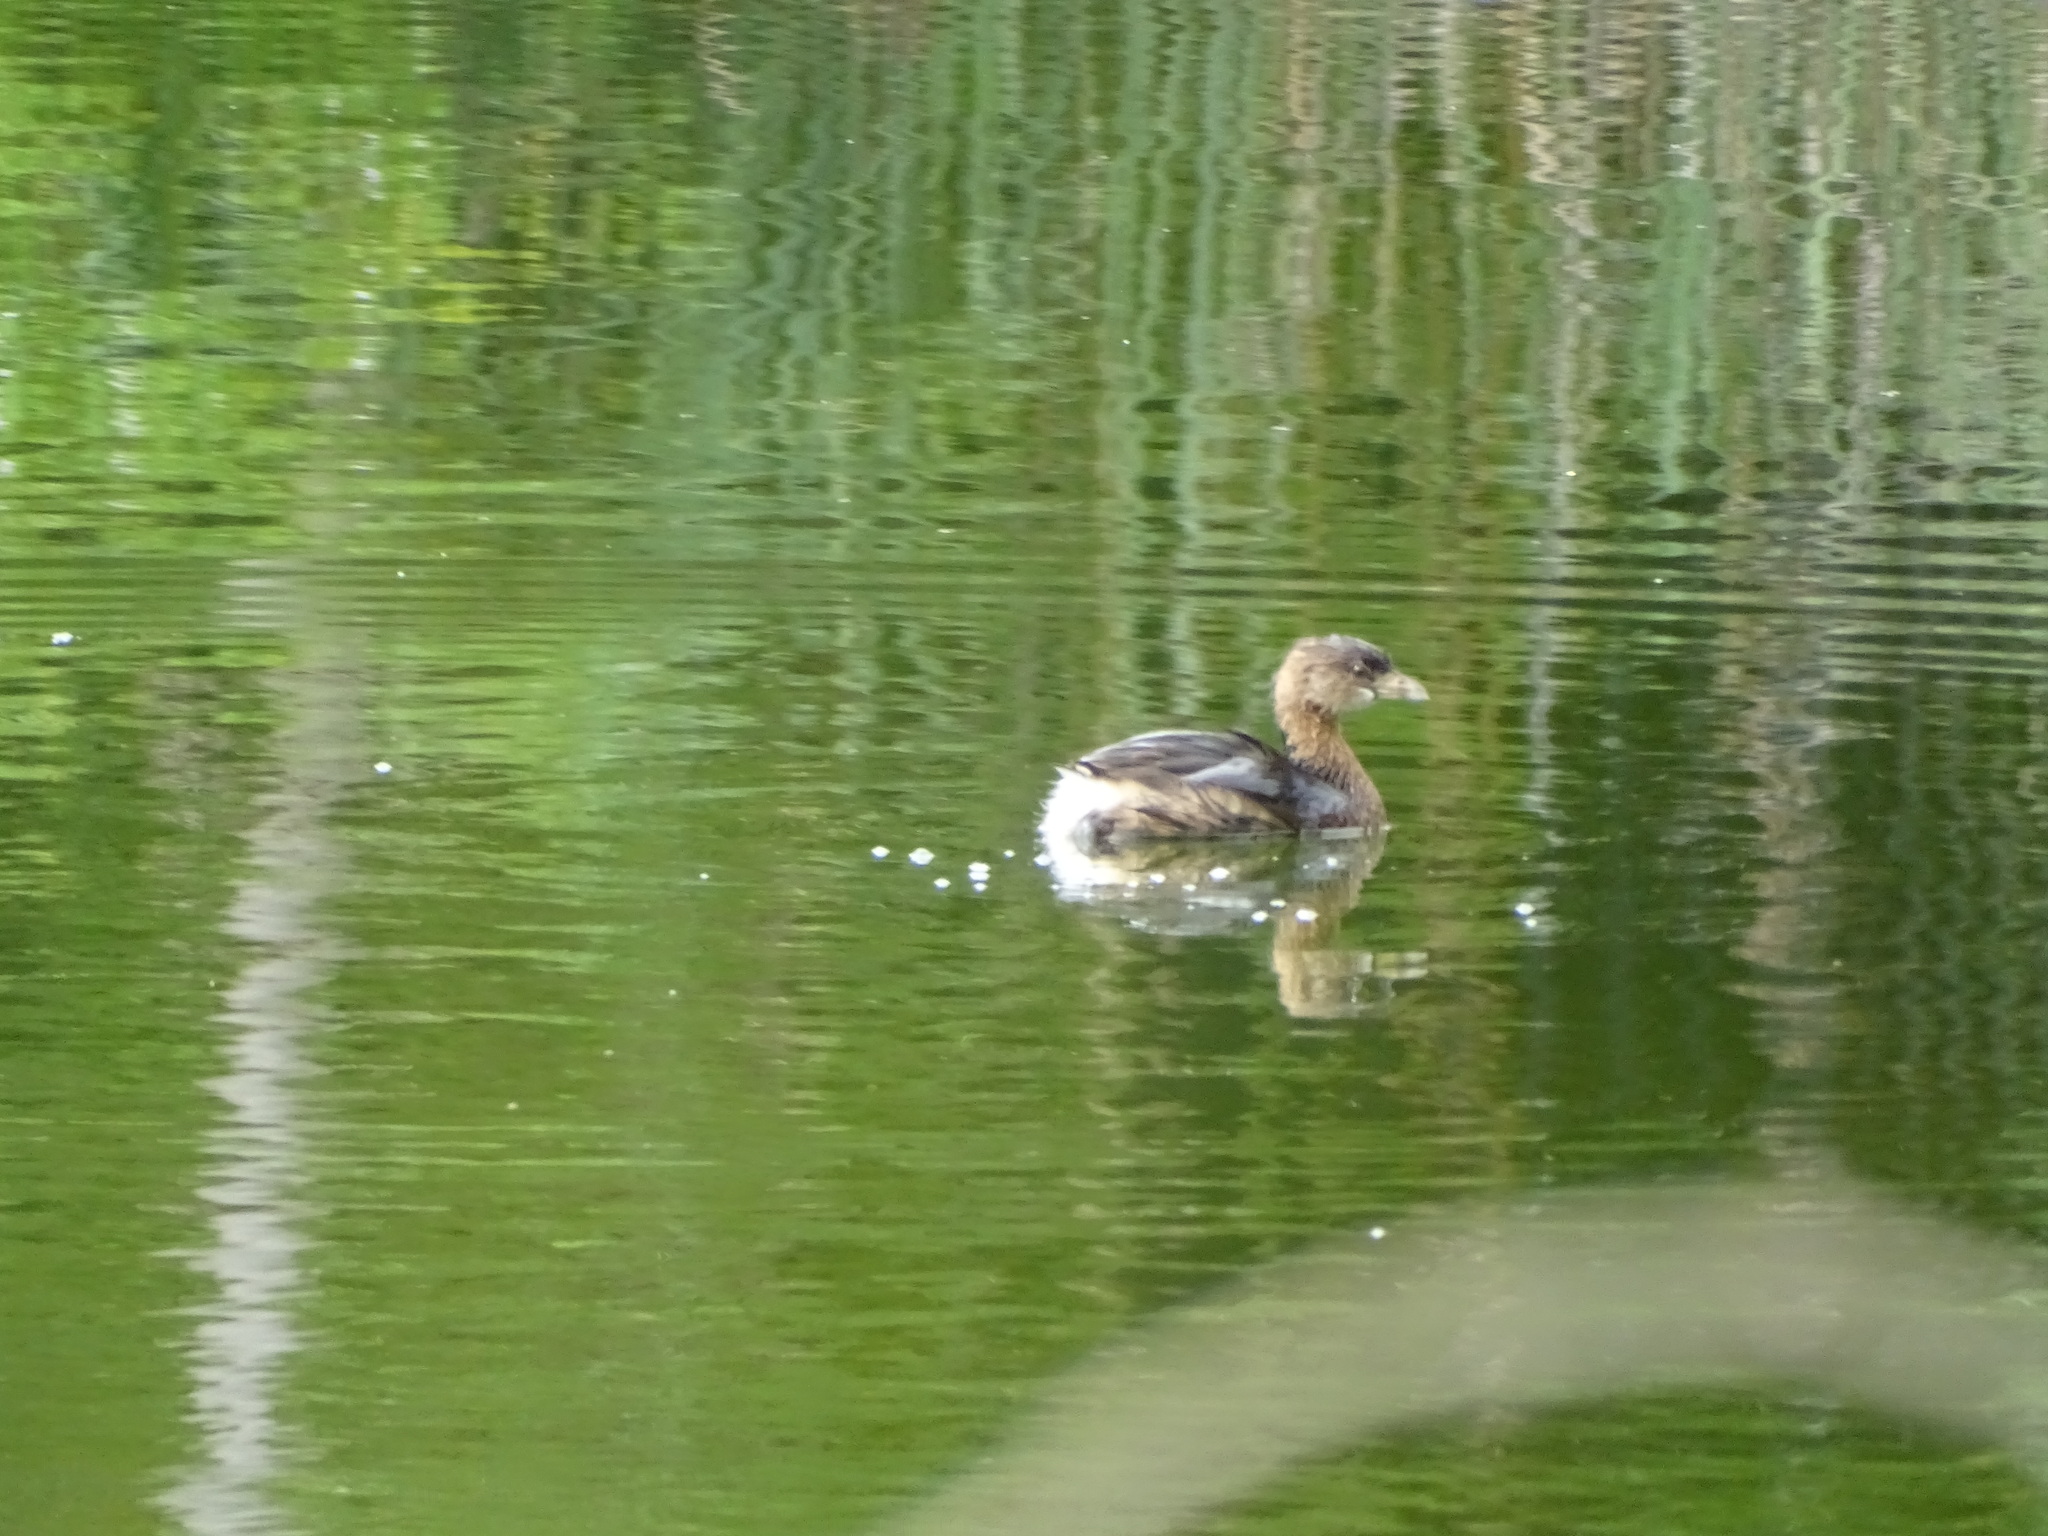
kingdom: Animalia
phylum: Chordata
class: Aves
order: Podicipediformes
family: Podicipedidae
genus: Podilymbus
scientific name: Podilymbus podiceps
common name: Pied-billed grebe
